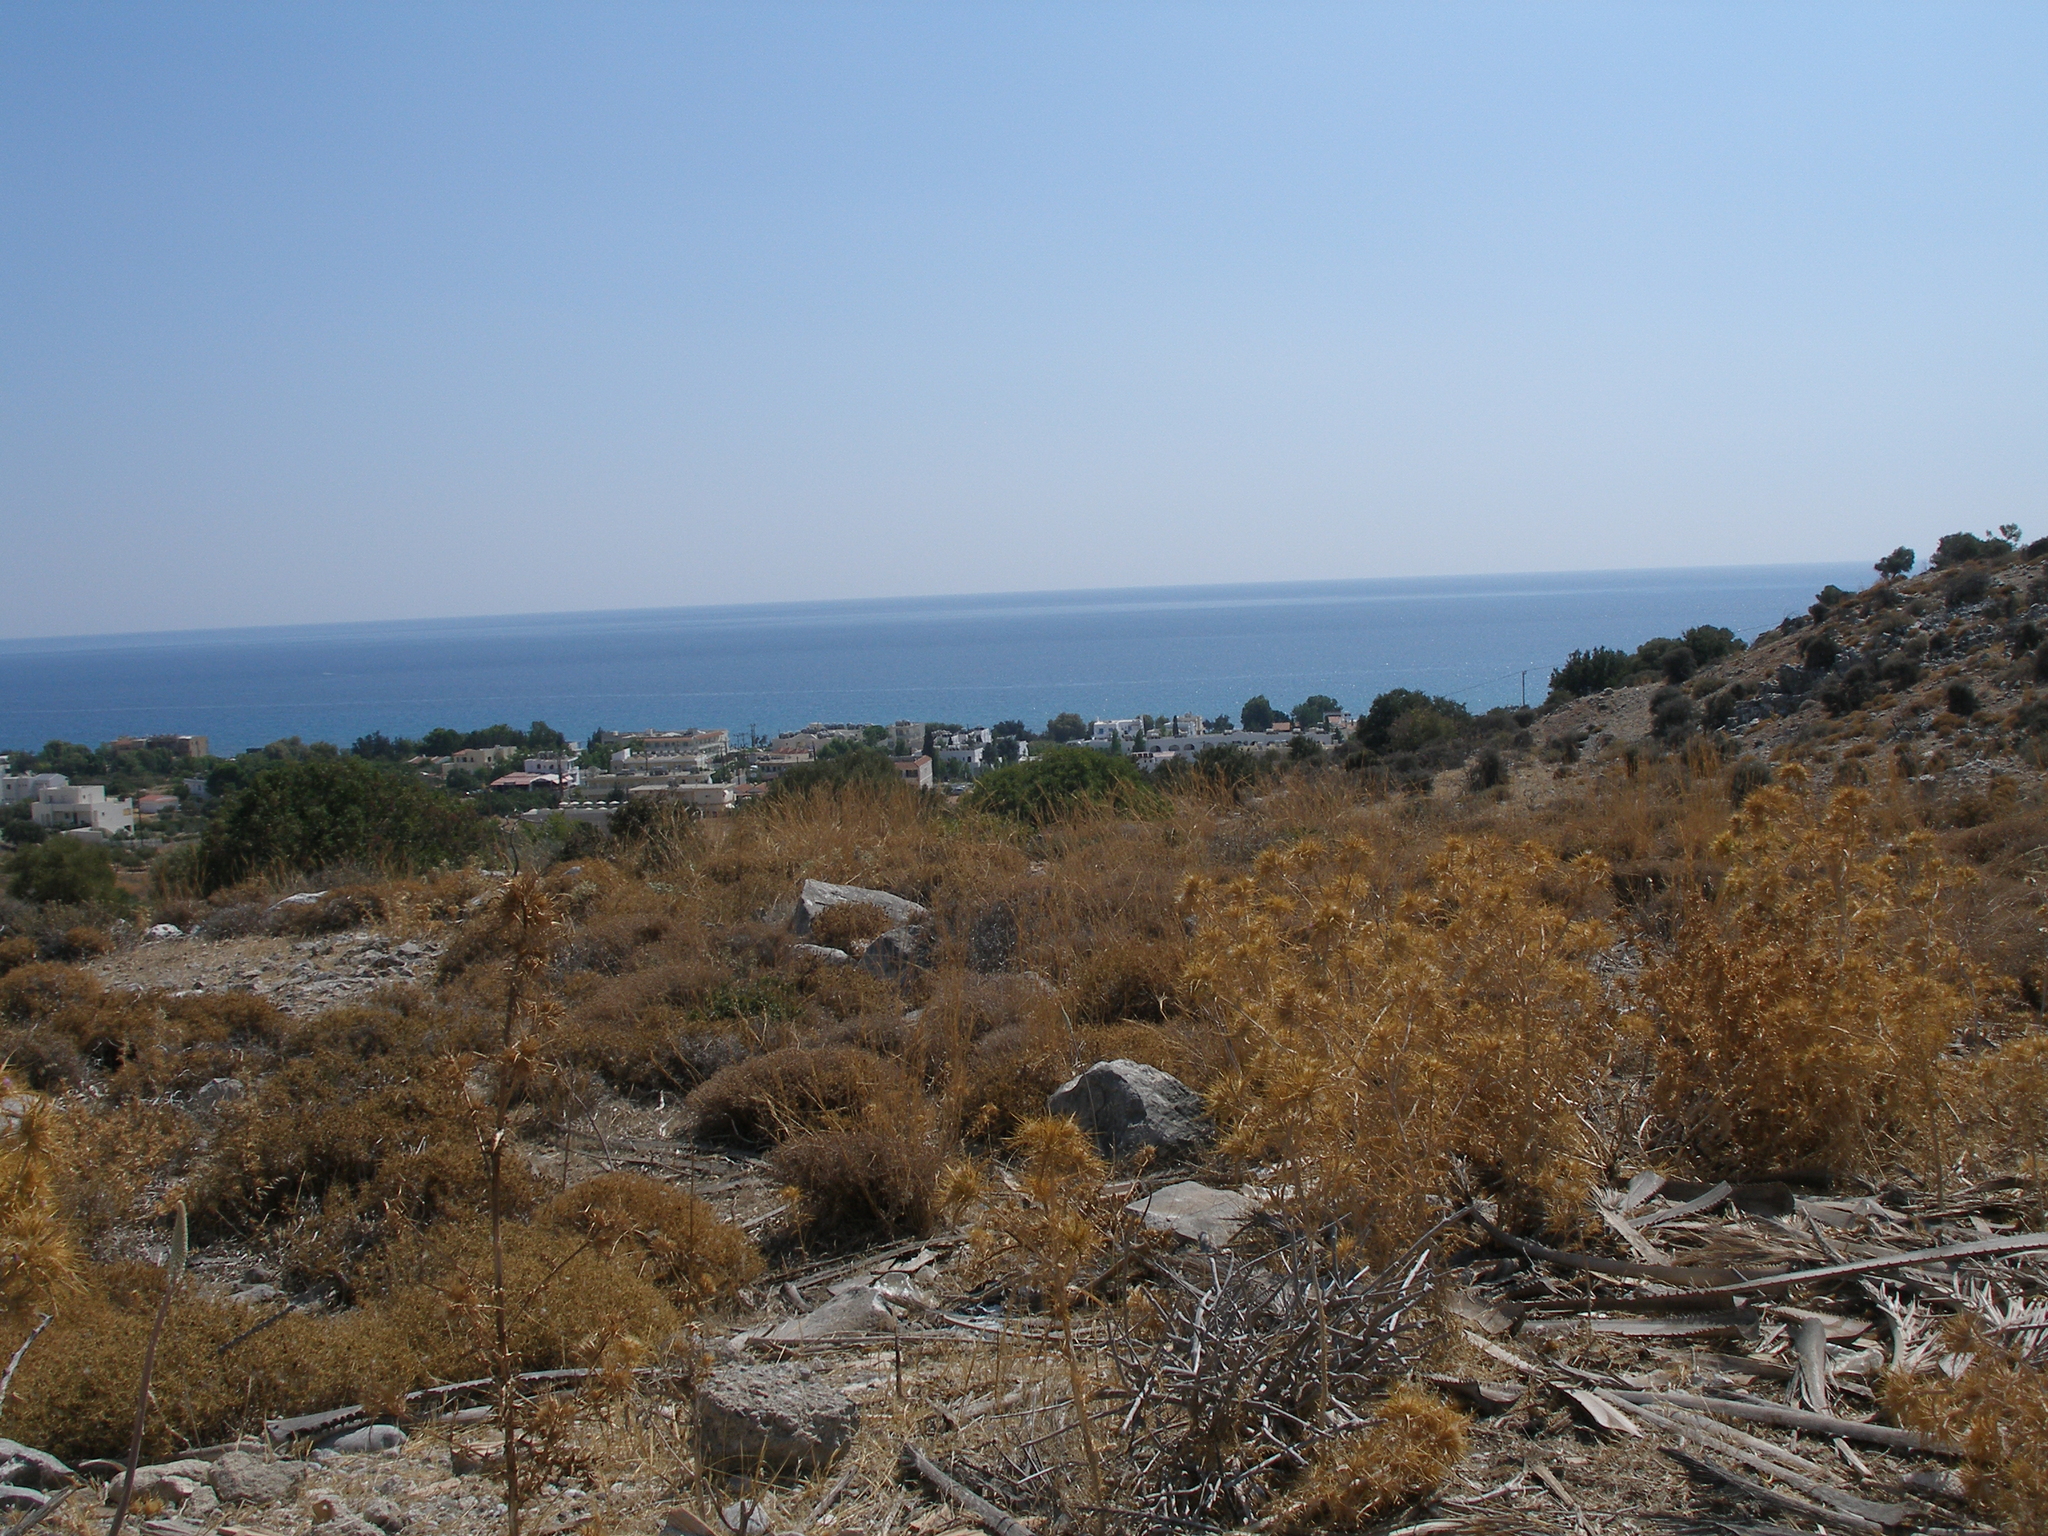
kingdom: Plantae
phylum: Tracheophyta
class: Magnoliopsida
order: Asterales
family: Asteraceae
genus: Carlina
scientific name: Carlina graeca
